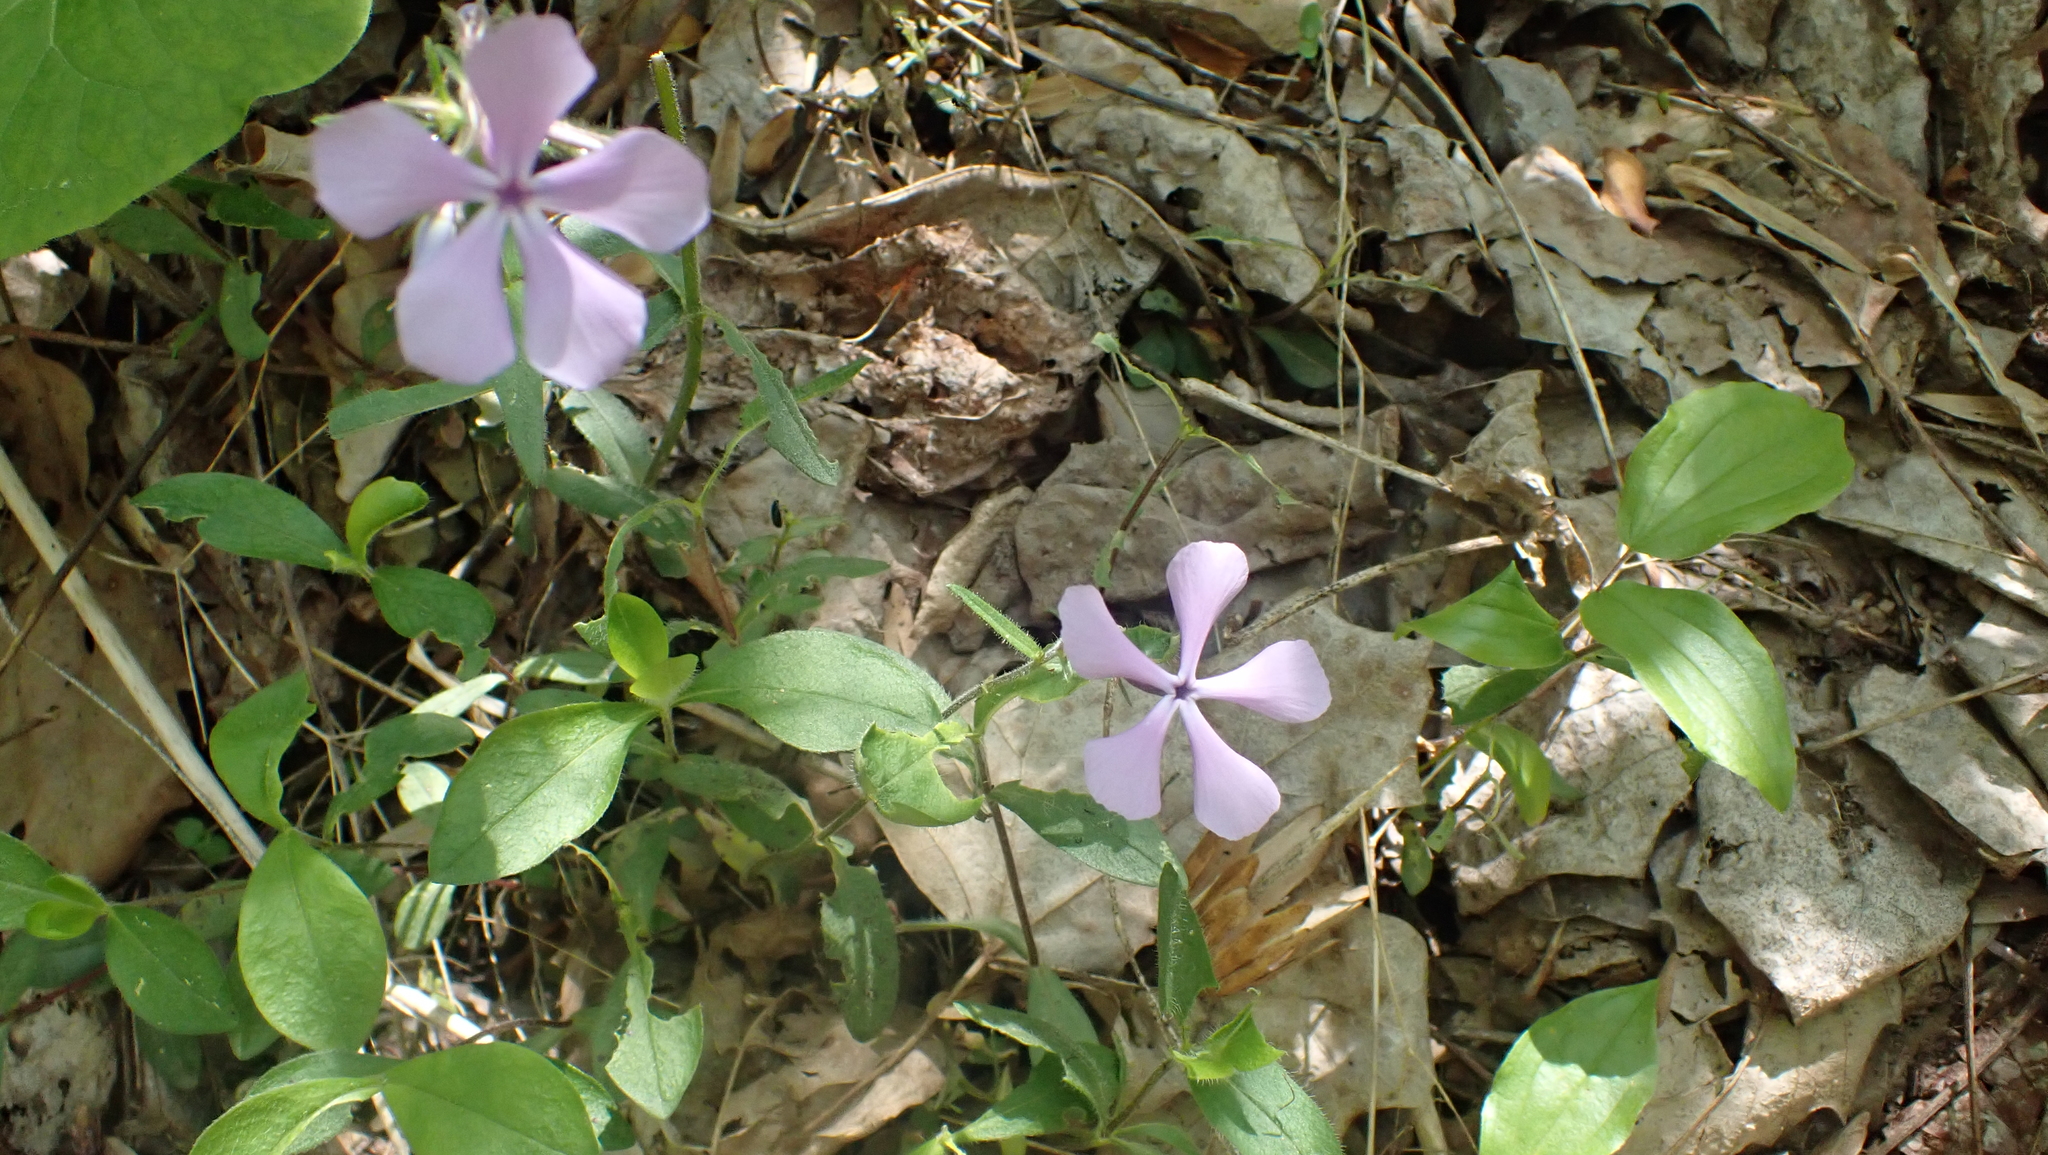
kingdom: Plantae
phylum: Tracheophyta
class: Magnoliopsida
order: Ericales
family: Polemoniaceae
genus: Phlox
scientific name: Phlox divaricata
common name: Blue phlox
